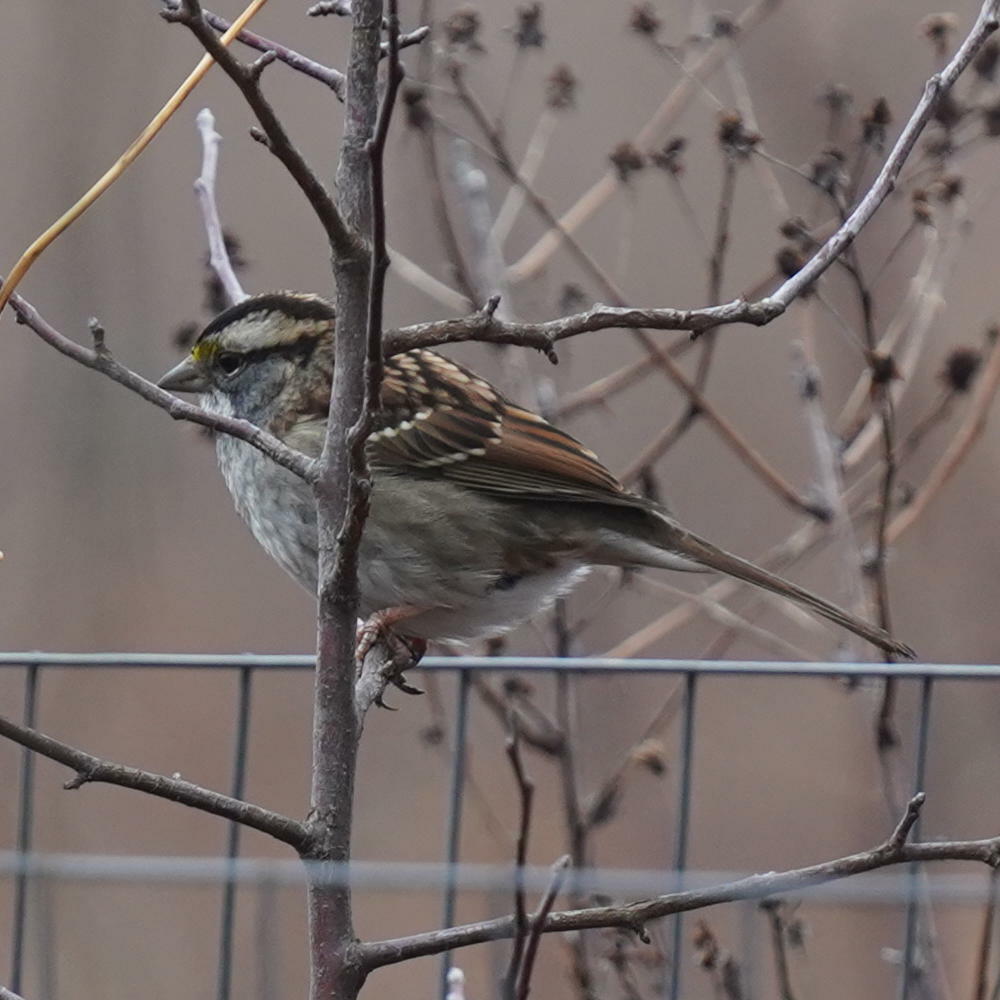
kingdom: Animalia
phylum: Chordata
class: Aves
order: Passeriformes
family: Passerellidae
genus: Zonotrichia
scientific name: Zonotrichia albicollis
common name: White-throated sparrow
